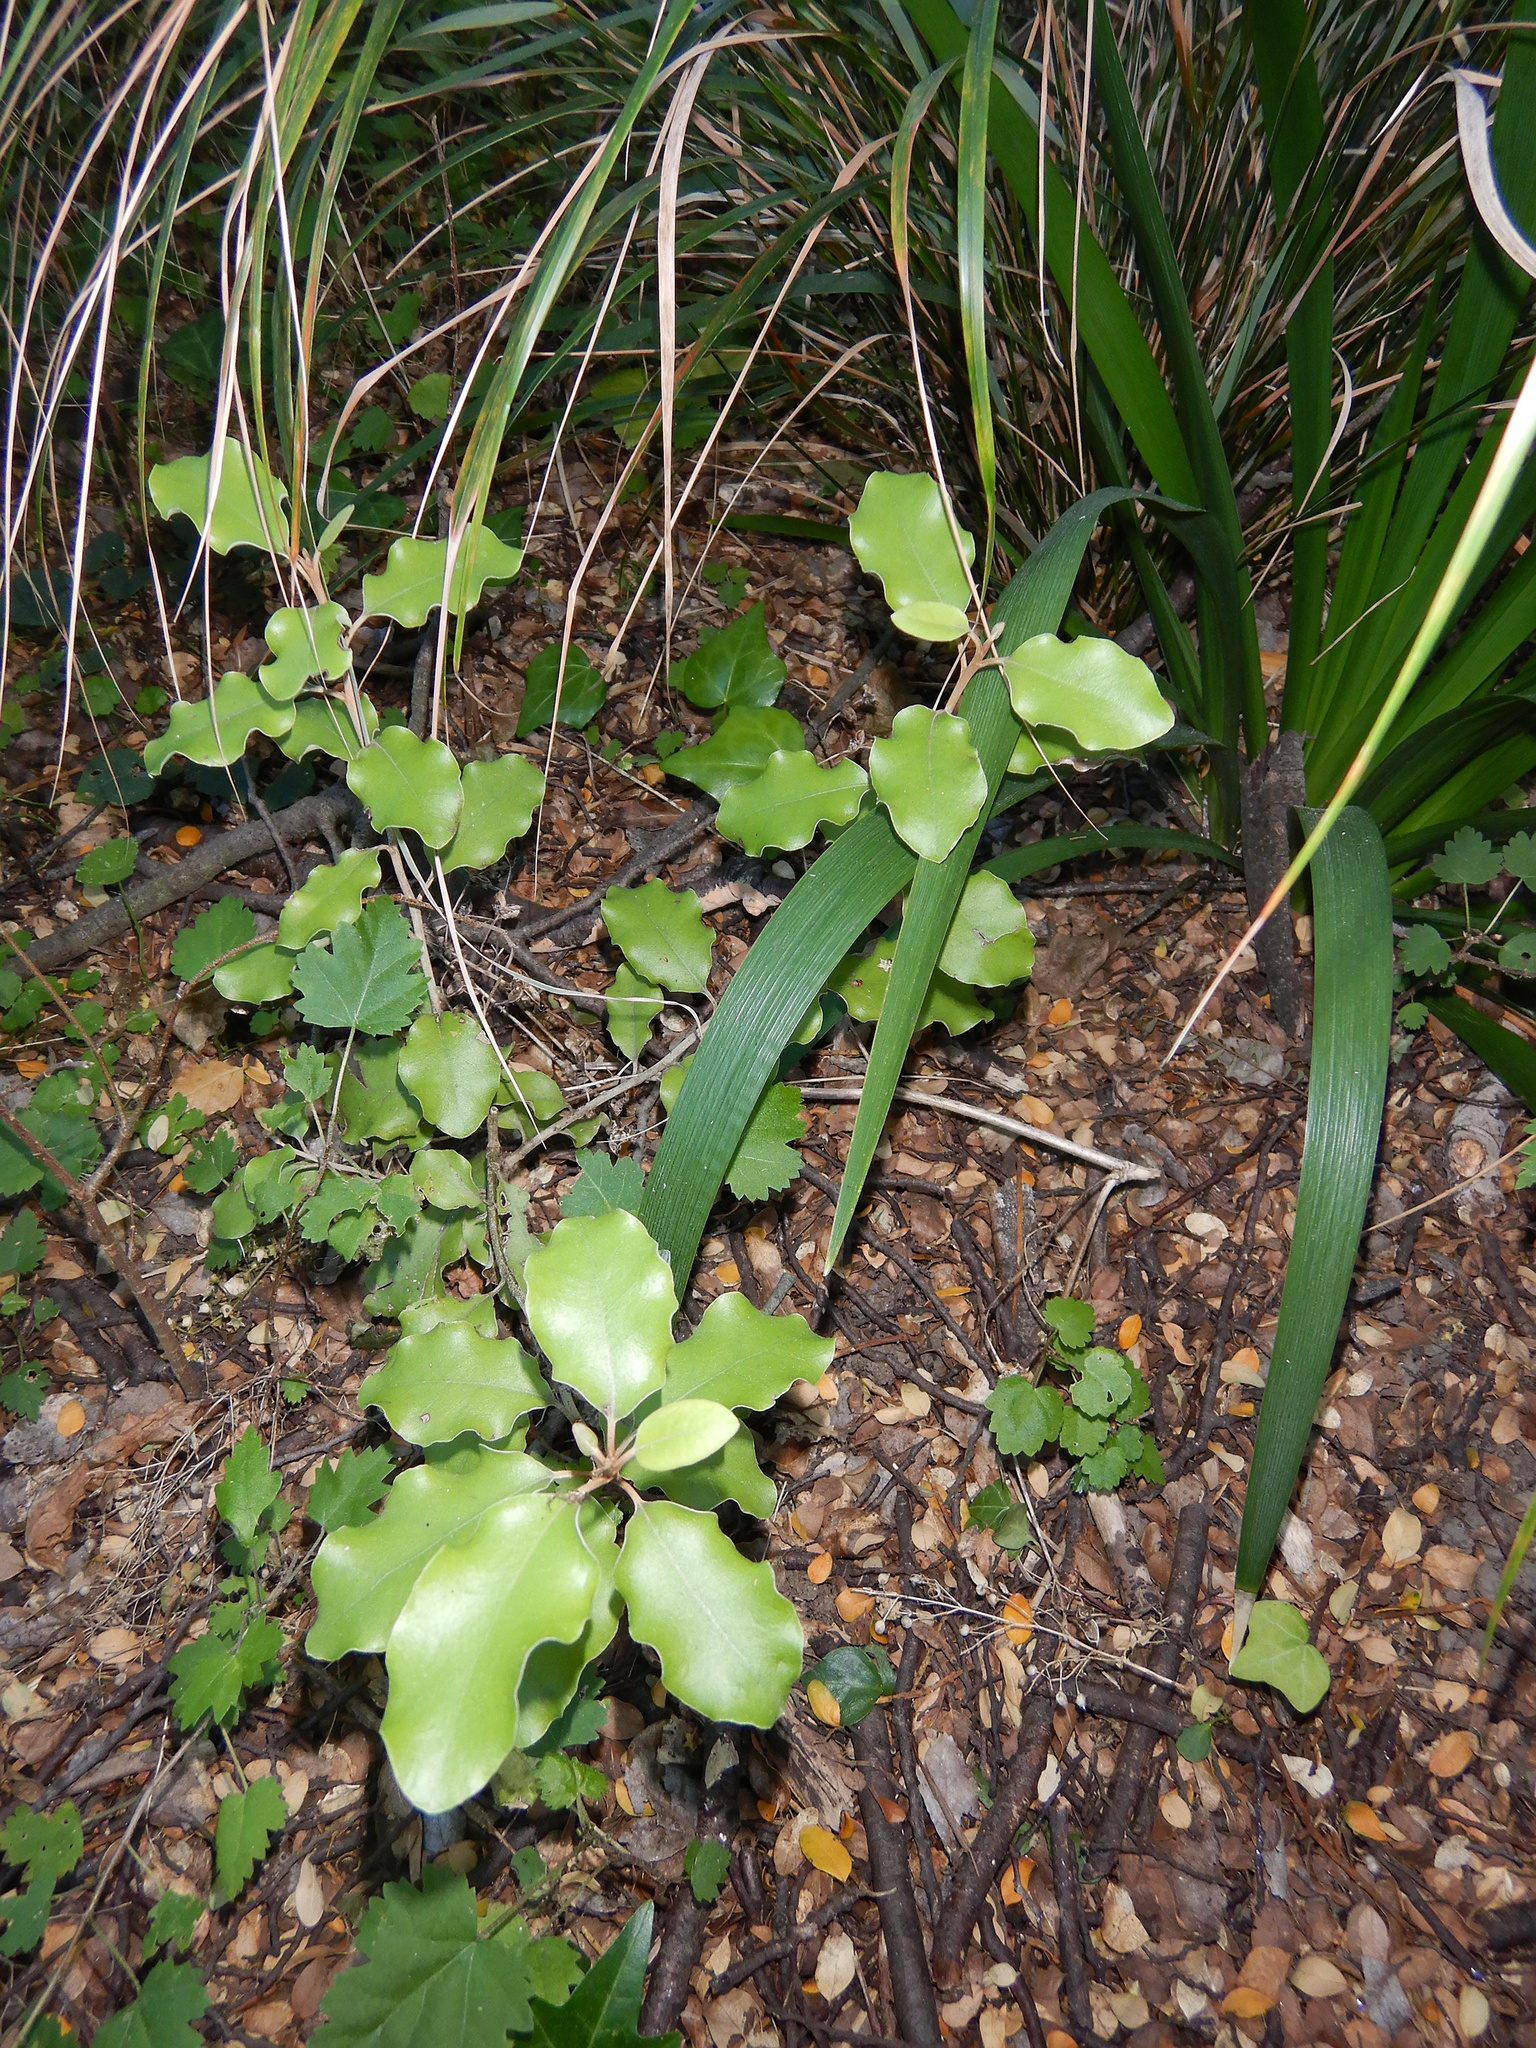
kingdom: Plantae
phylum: Tracheophyta
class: Magnoliopsida
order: Asterales
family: Asteraceae
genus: Olearia
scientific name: Olearia paniculata
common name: Akiraho
